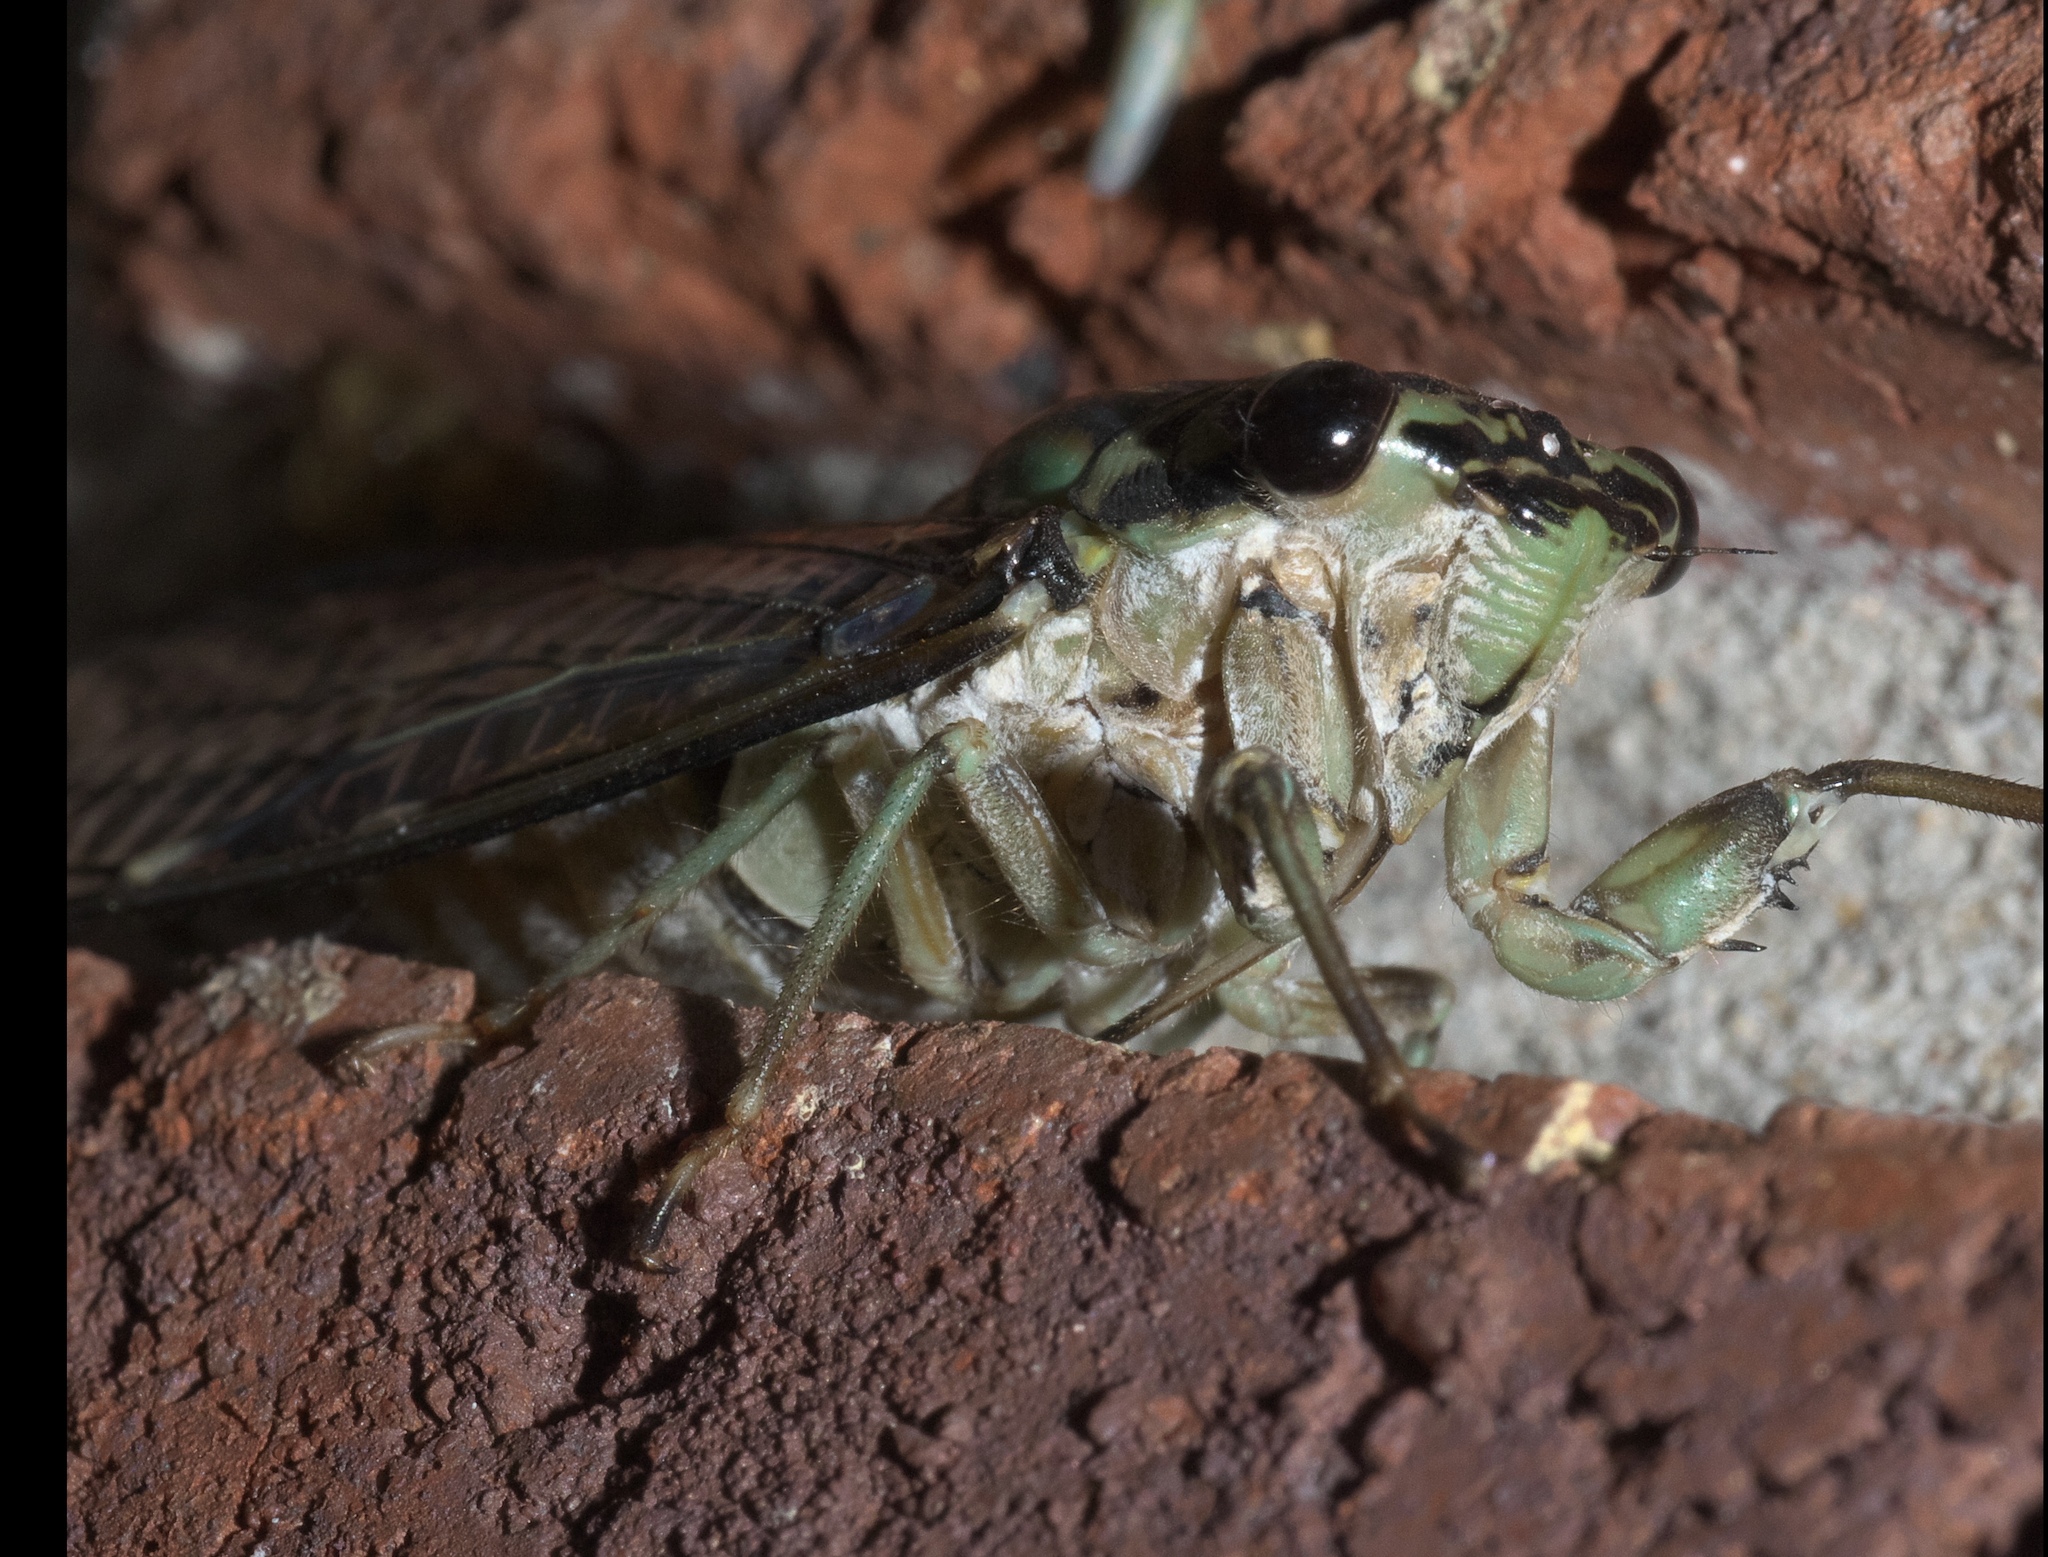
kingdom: Animalia
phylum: Arthropoda
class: Insecta
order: Hemiptera
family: Cicadidae
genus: Neocicada
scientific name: Neocicada hieroglyphica
